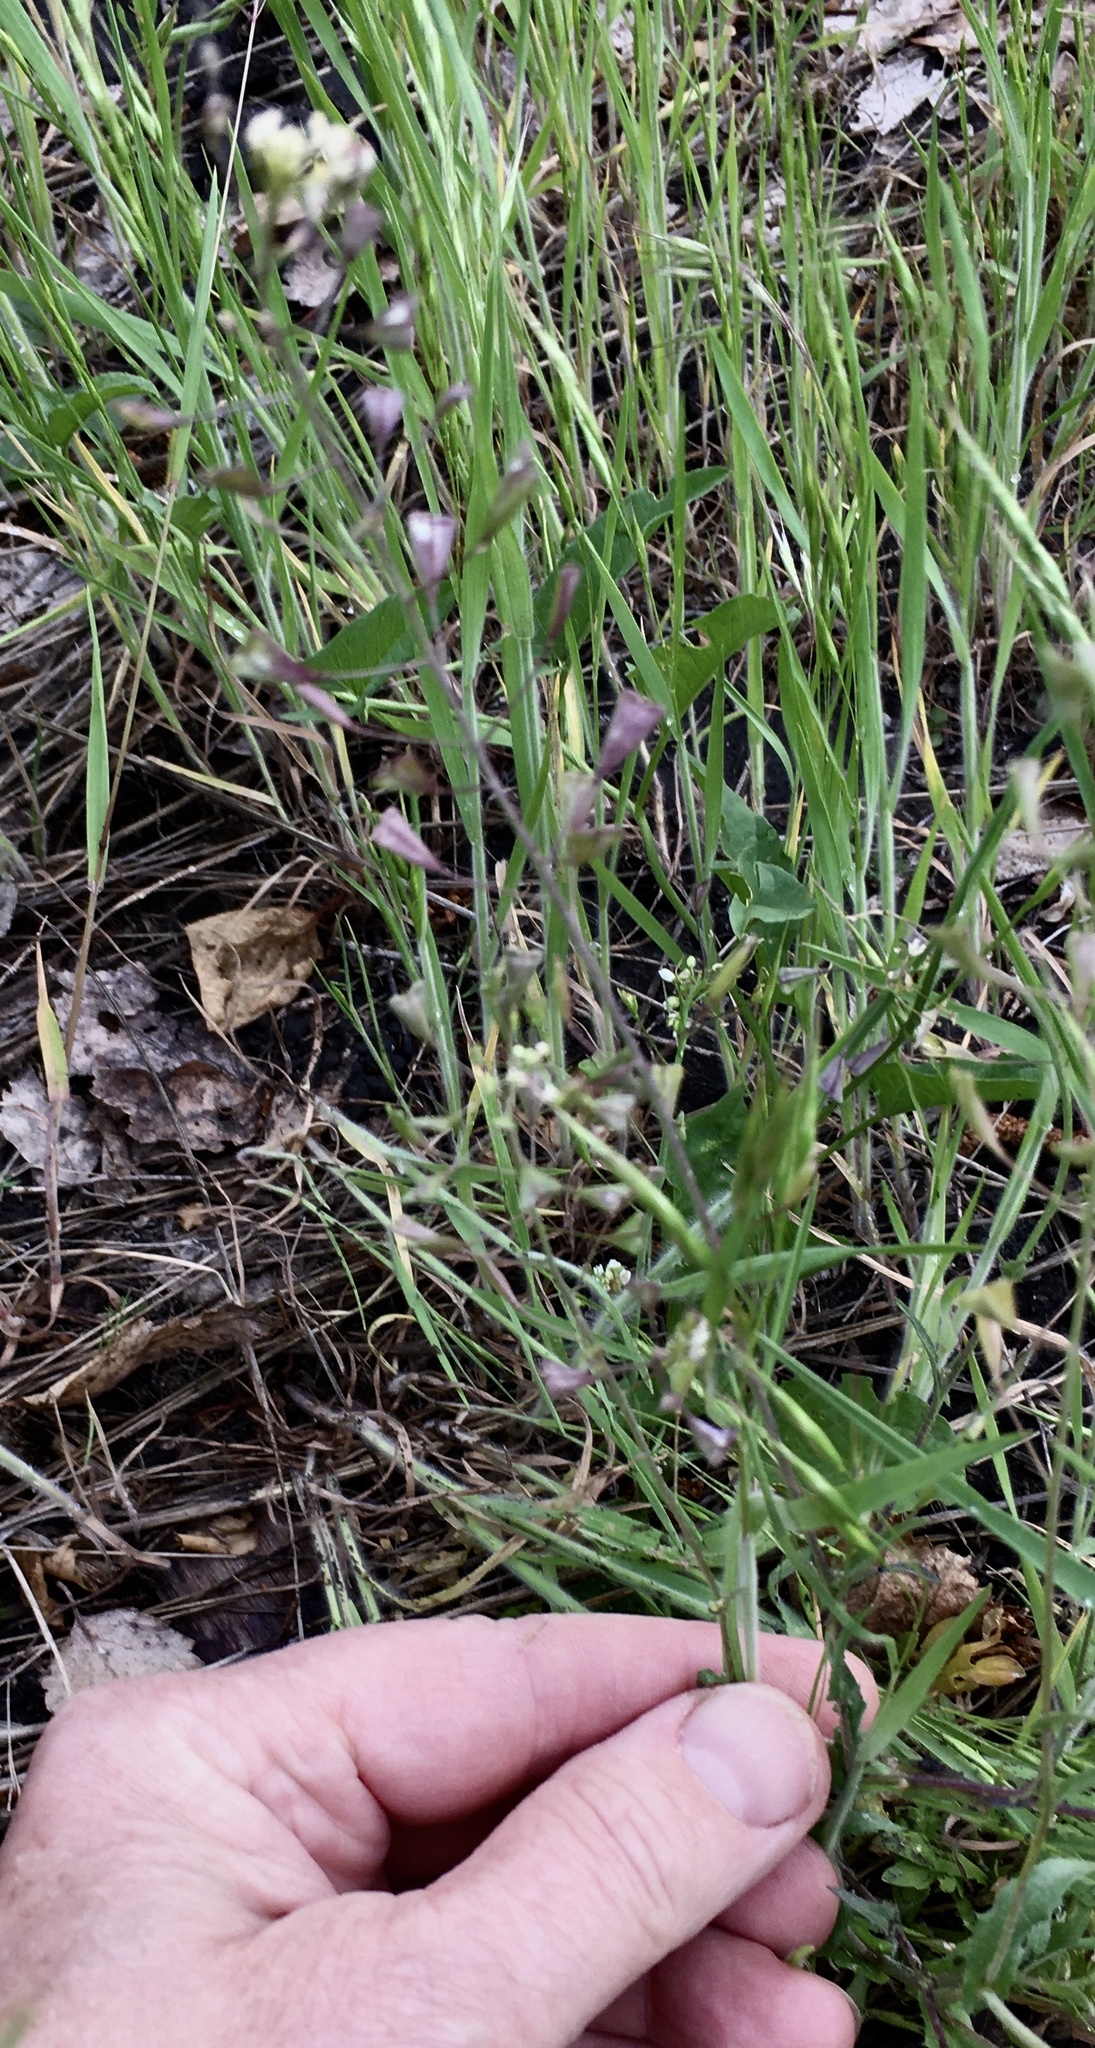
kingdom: Plantae
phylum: Tracheophyta
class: Magnoliopsida
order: Brassicales
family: Brassicaceae
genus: Capsella
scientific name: Capsella bursa-pastoris
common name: Shepherd's purse
